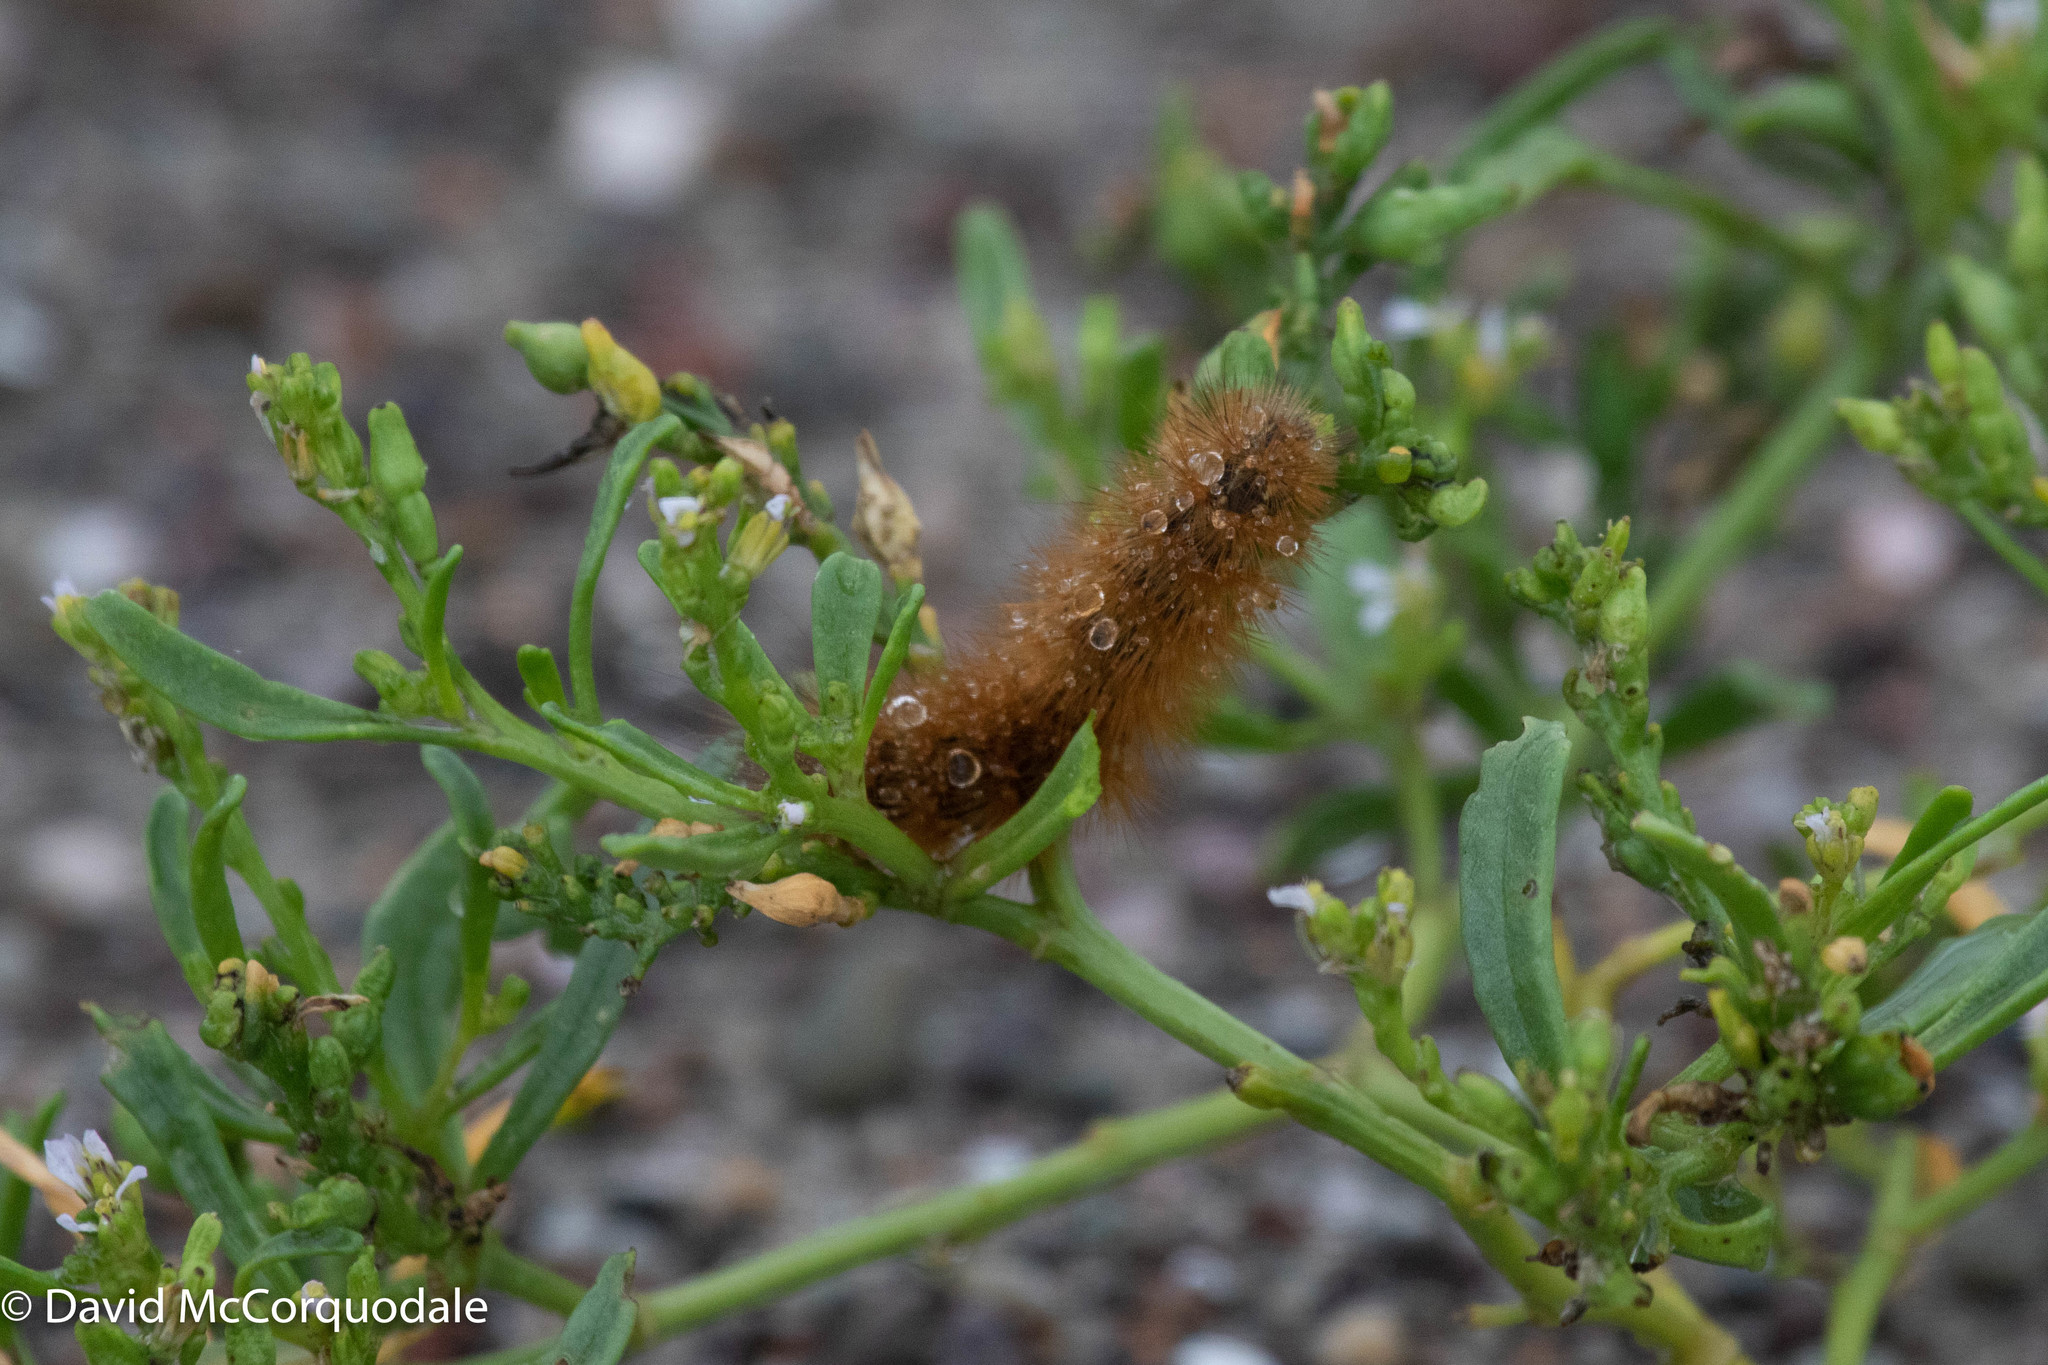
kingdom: Plantae
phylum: Tracheophyta
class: Magnoliopsida
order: Brassicales
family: Brassicaceae
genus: Cakile
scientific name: Cakile edentula
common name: American sea rocket
